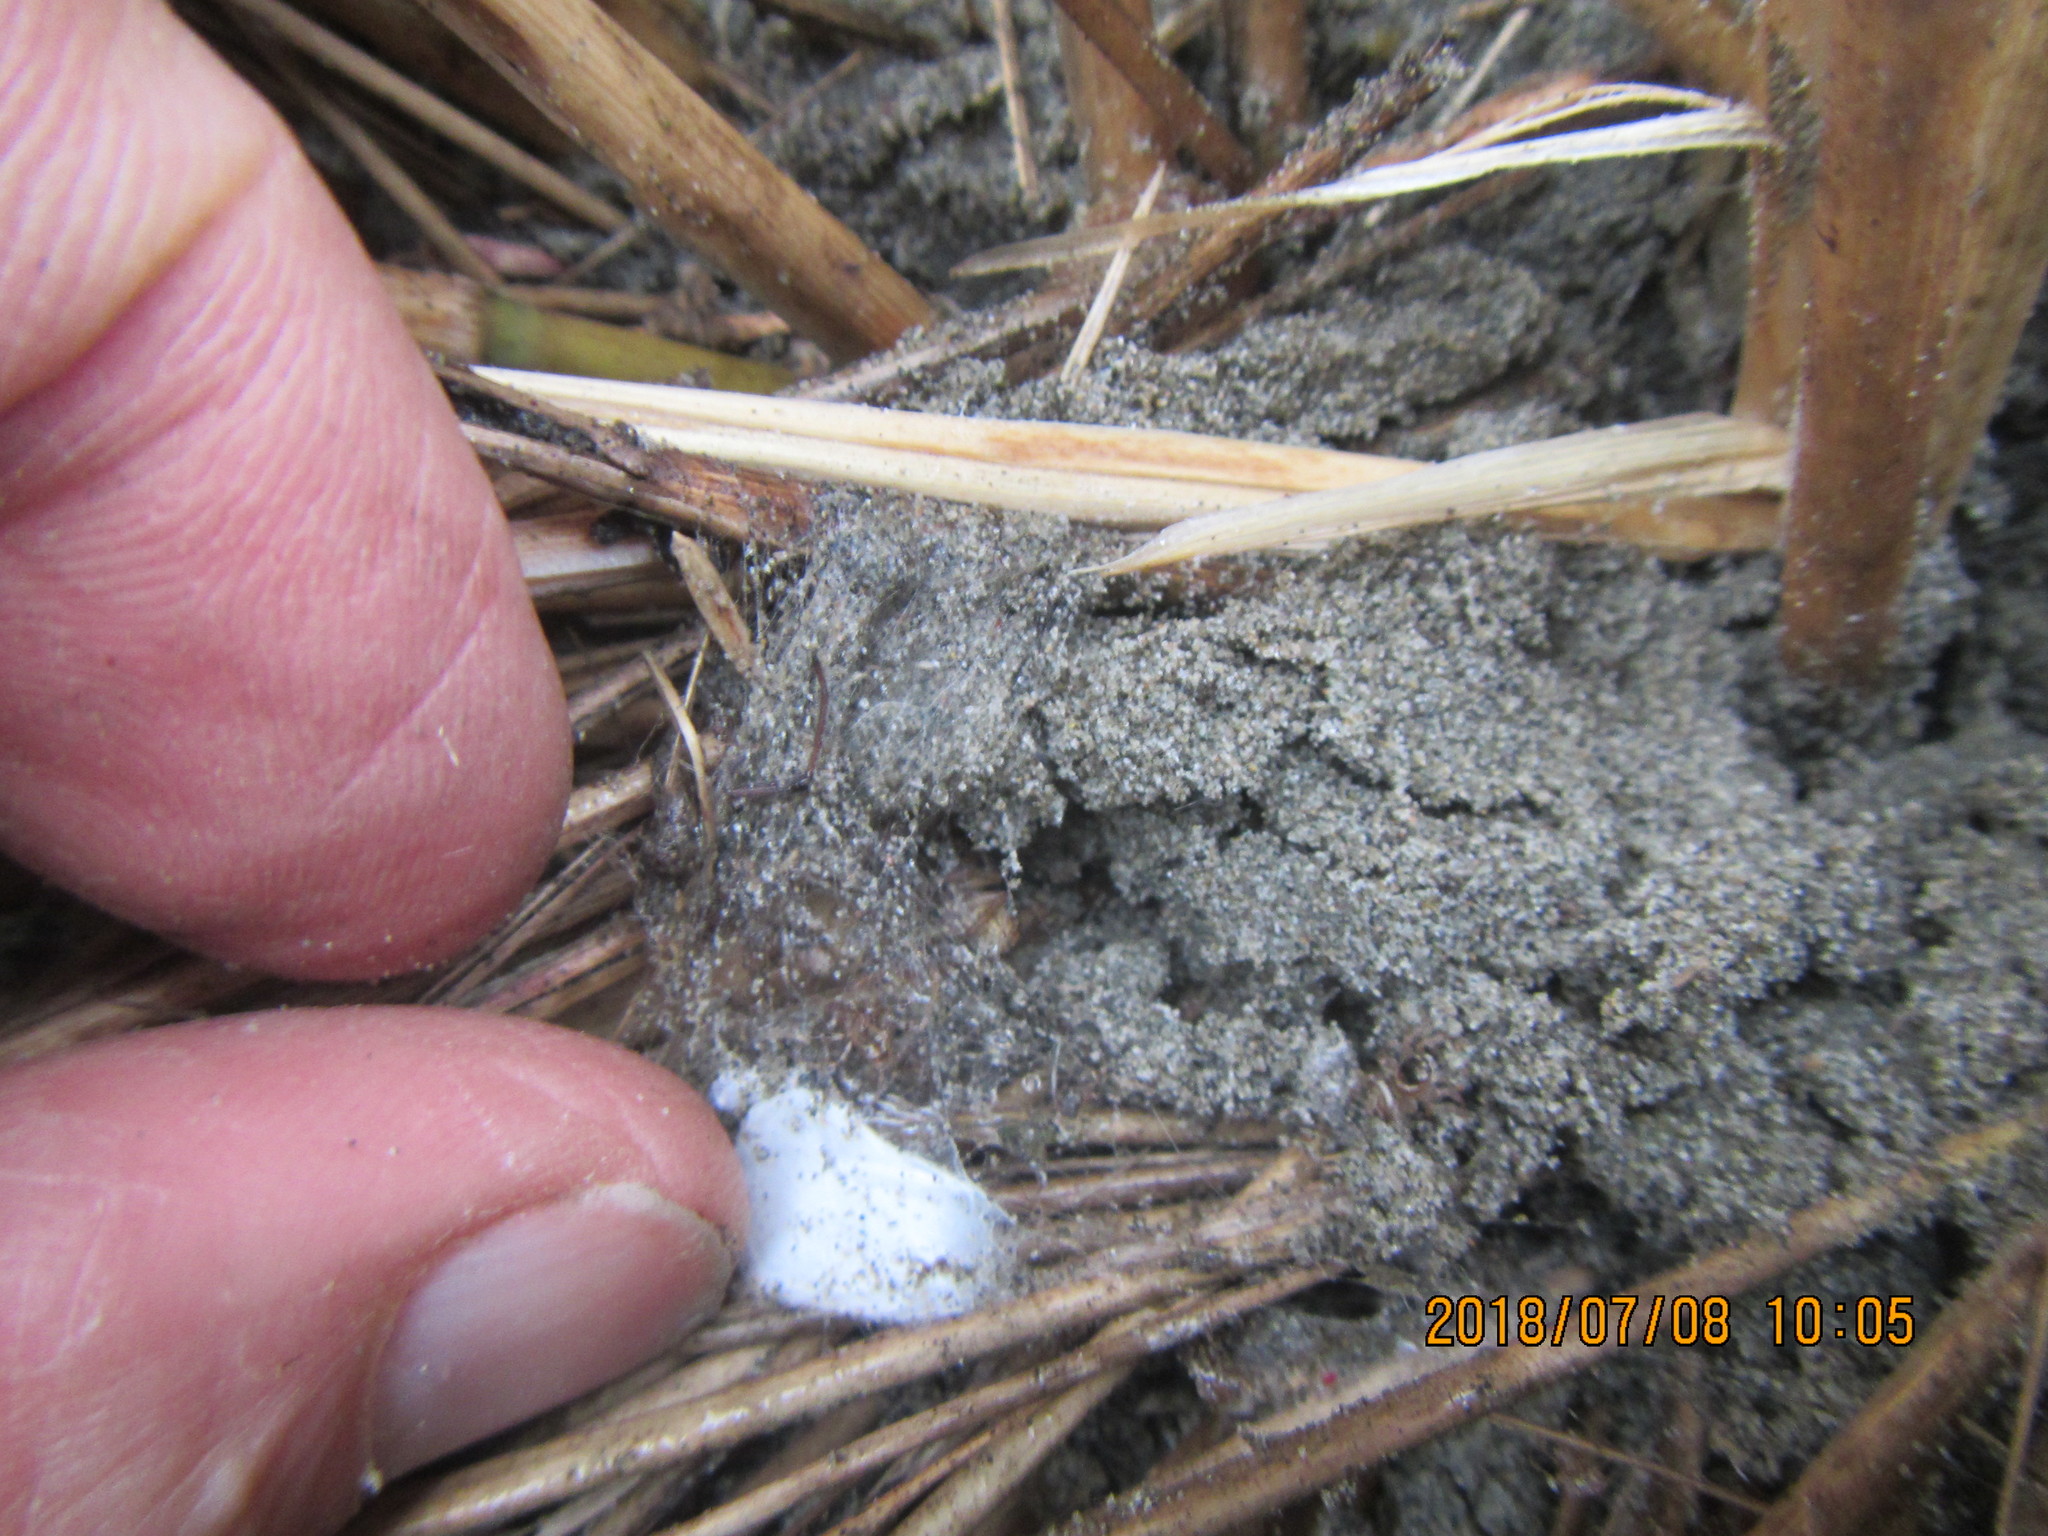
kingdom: Animalia
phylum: Arthropoda
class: Arachnida
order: Araneae
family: Mimetidae
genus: Australomimetus
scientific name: Australomimetus hartleyensis
